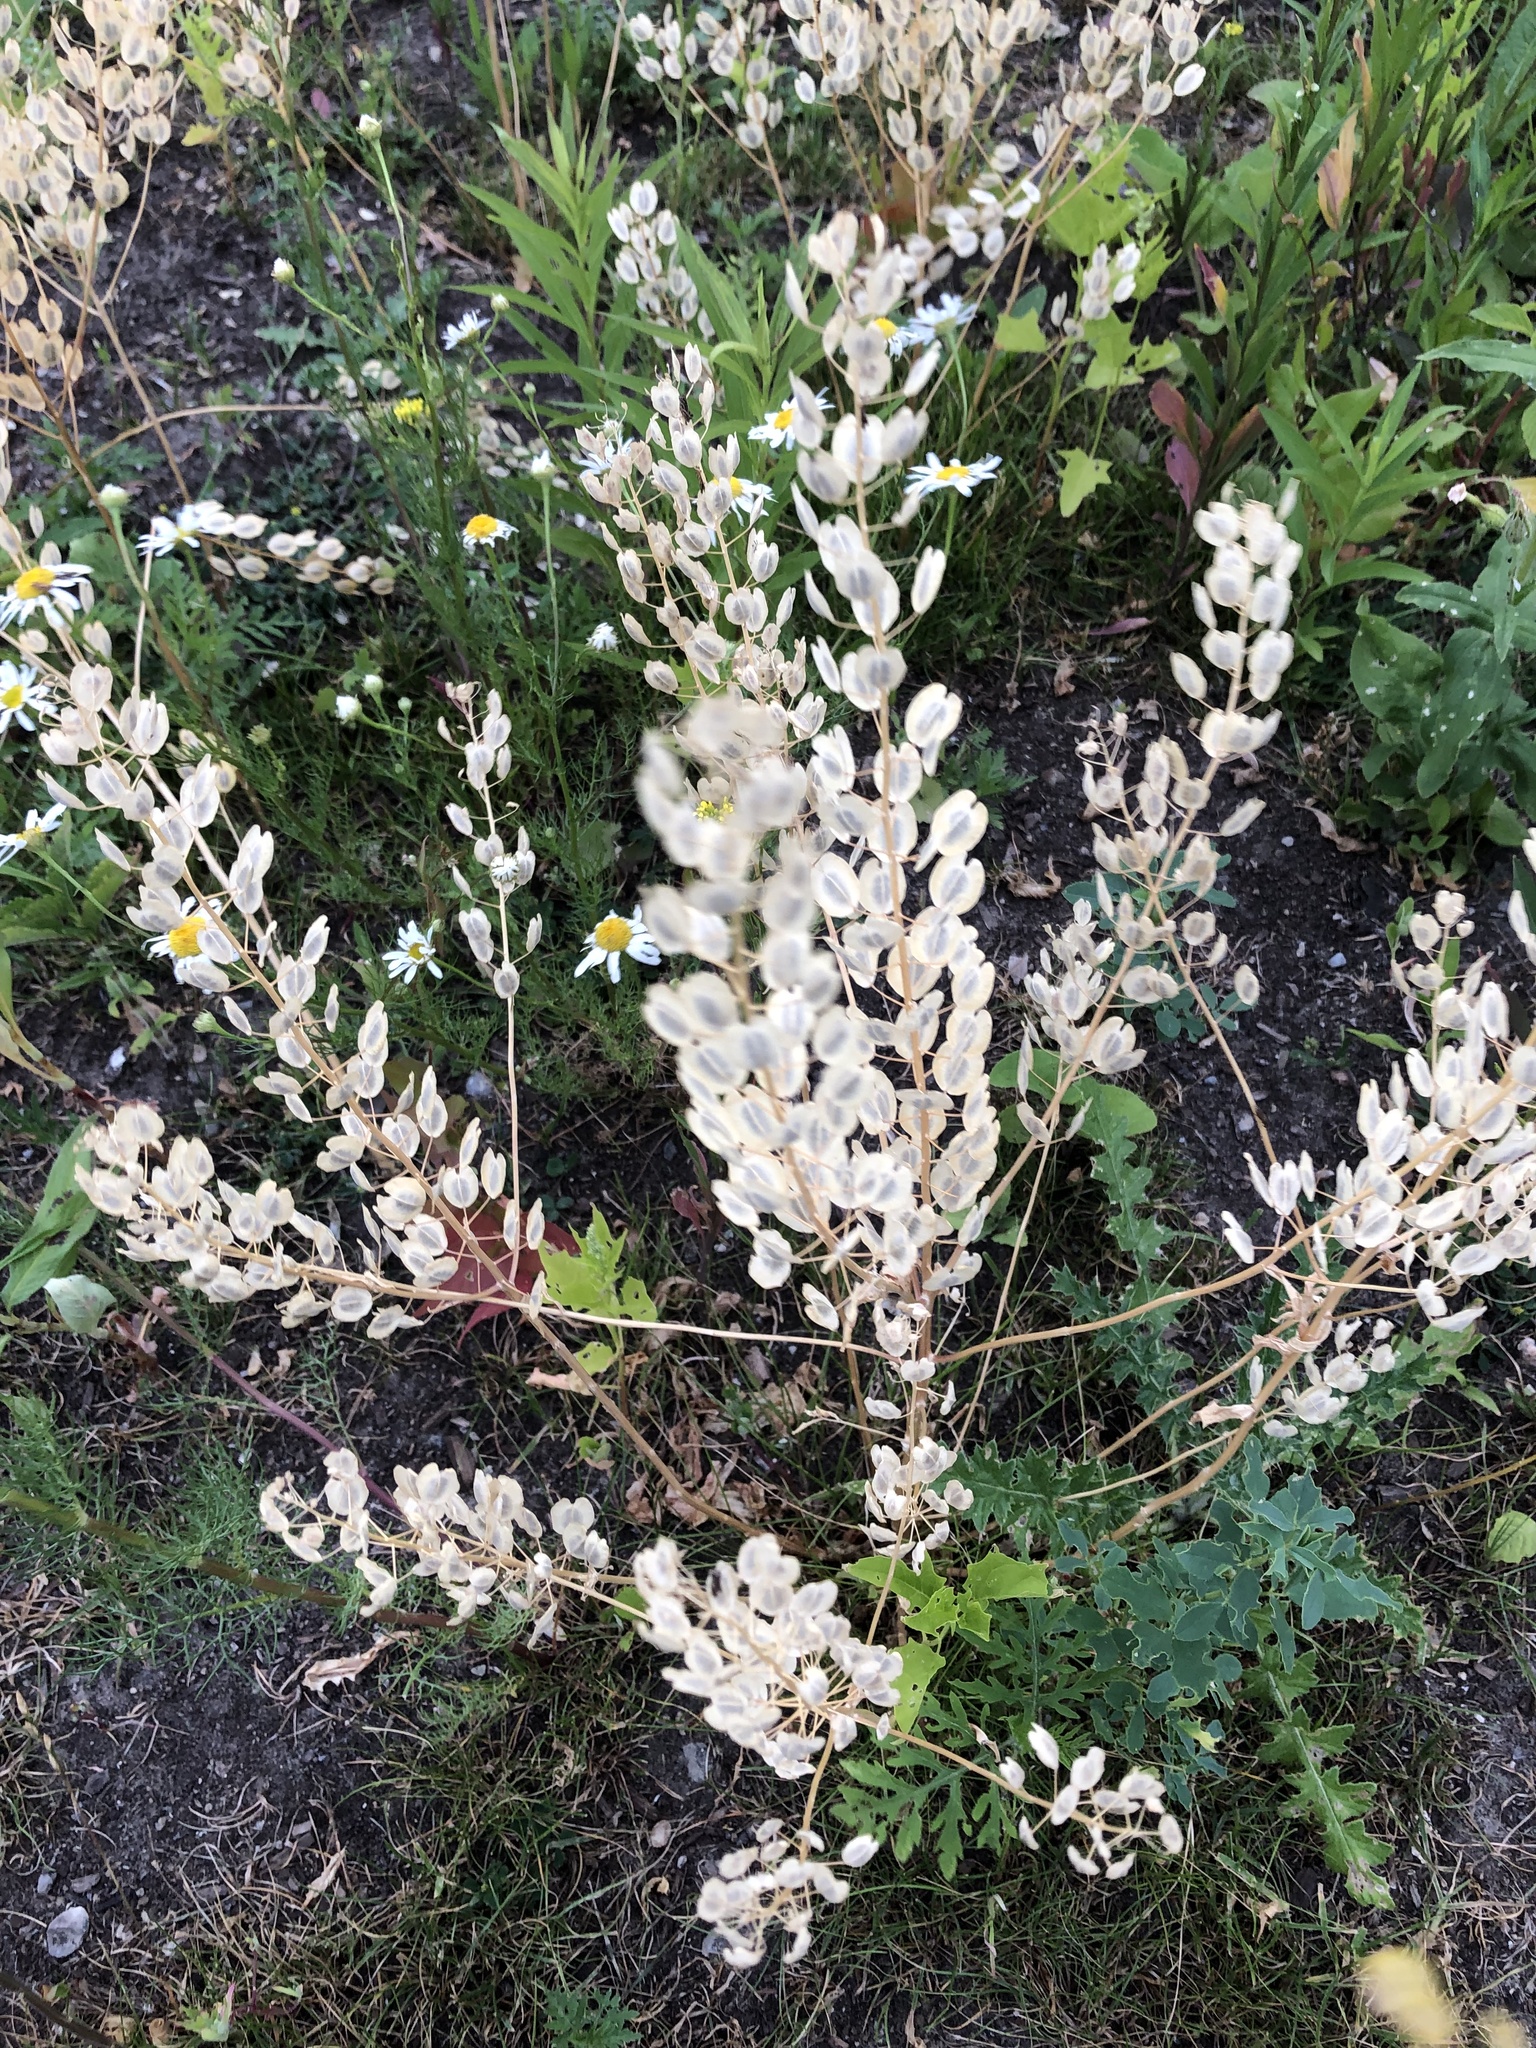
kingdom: Plantae
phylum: Tracheophyta
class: Magnoliopsida
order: Brassicales
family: Brassicaceae
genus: Thlaspi
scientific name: Thlaspi arvense
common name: Field pennycress
